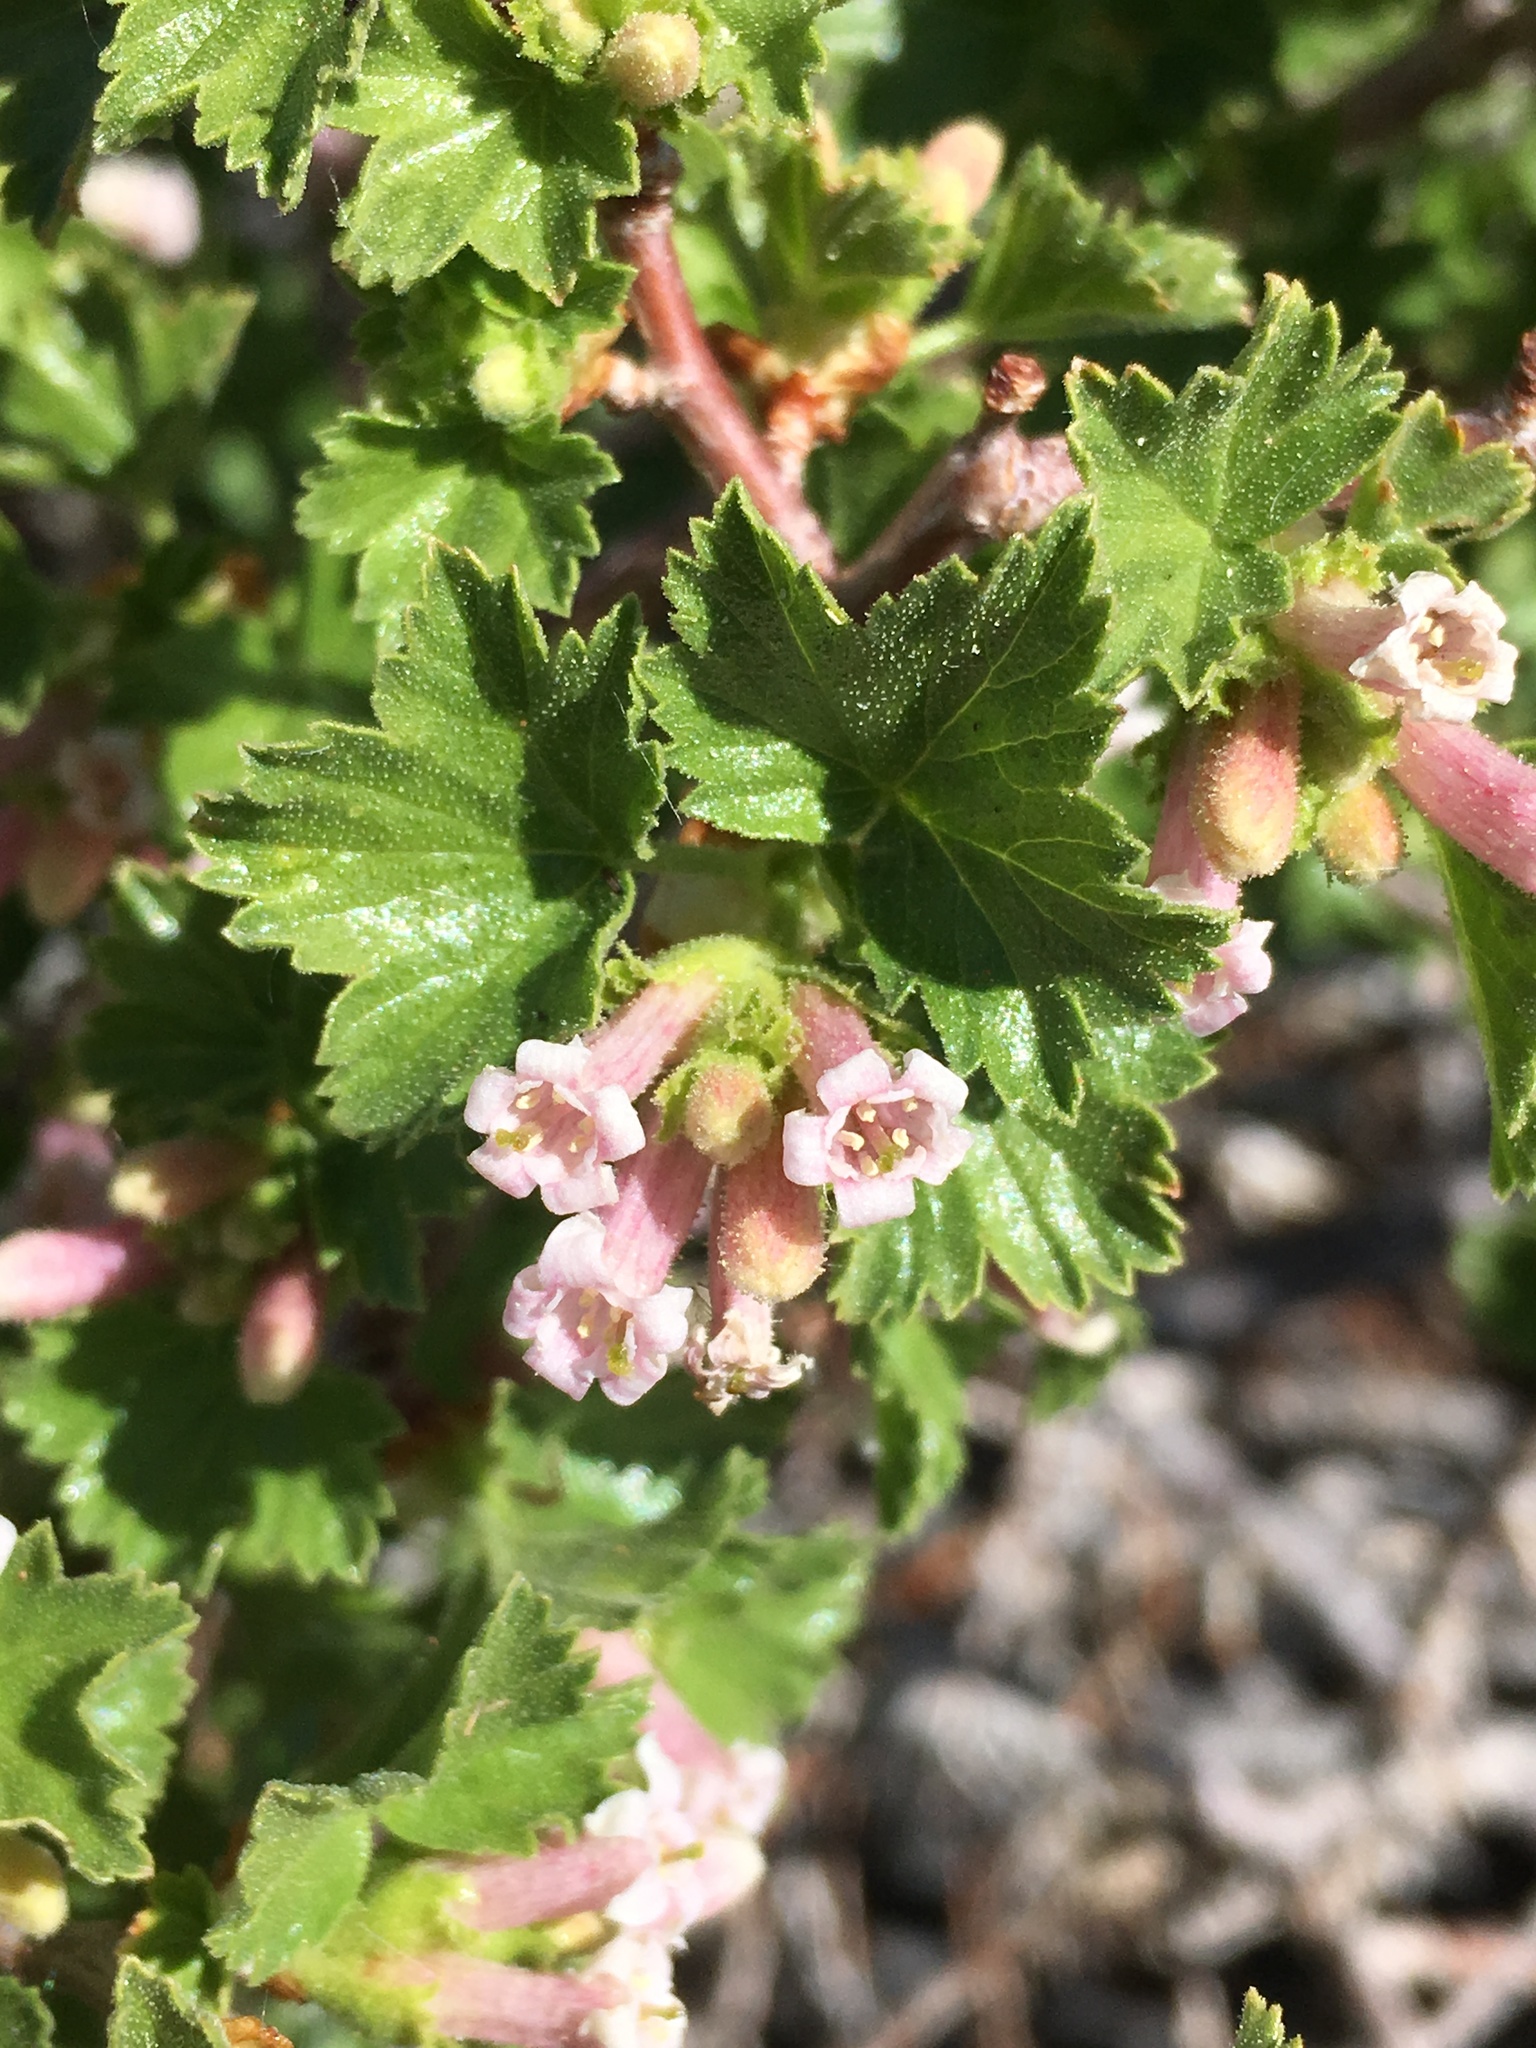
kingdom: Plantae
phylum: Tracheophyta
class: Magnoliopsida
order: Saxifragales
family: Grossulariaceae
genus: Ribes
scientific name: Ribes cereum
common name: Wax currant
